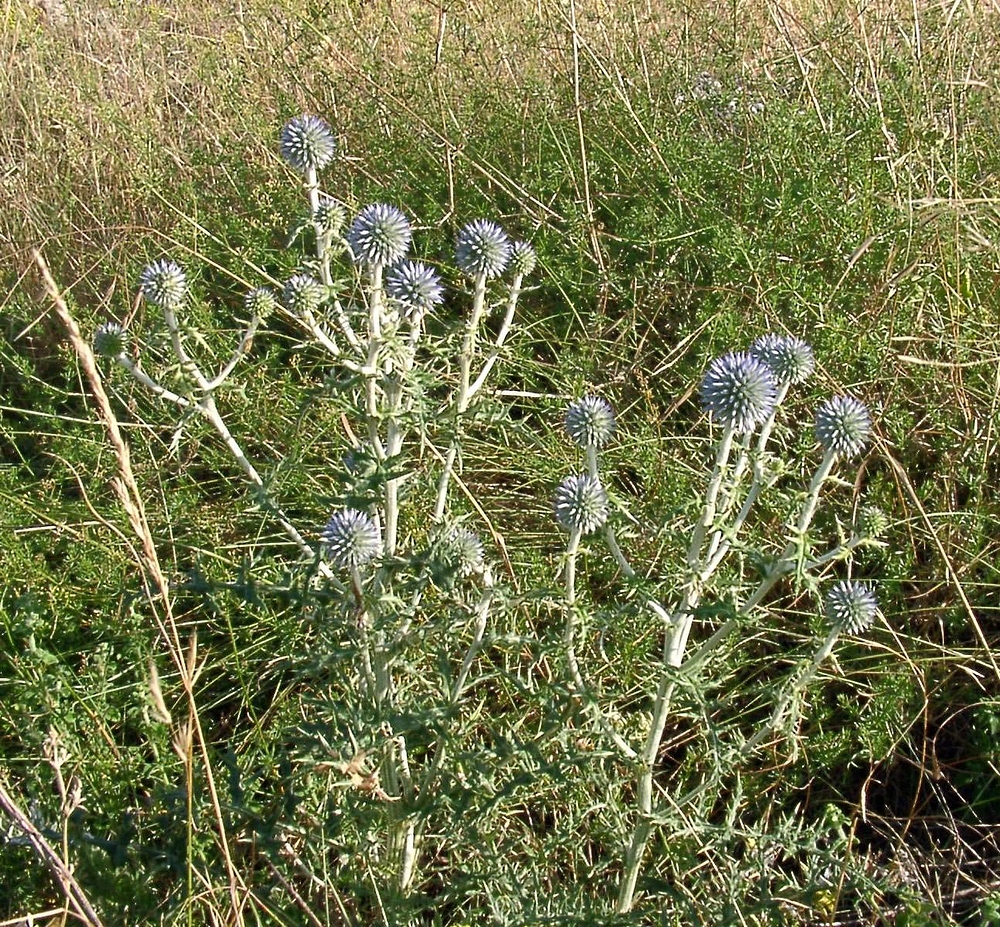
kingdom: Plantae
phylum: Tracheophyta
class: Magnoliopsida
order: Asterales
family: Asteraceae
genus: Echinops
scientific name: Echinops ritro
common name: Globe thistle
